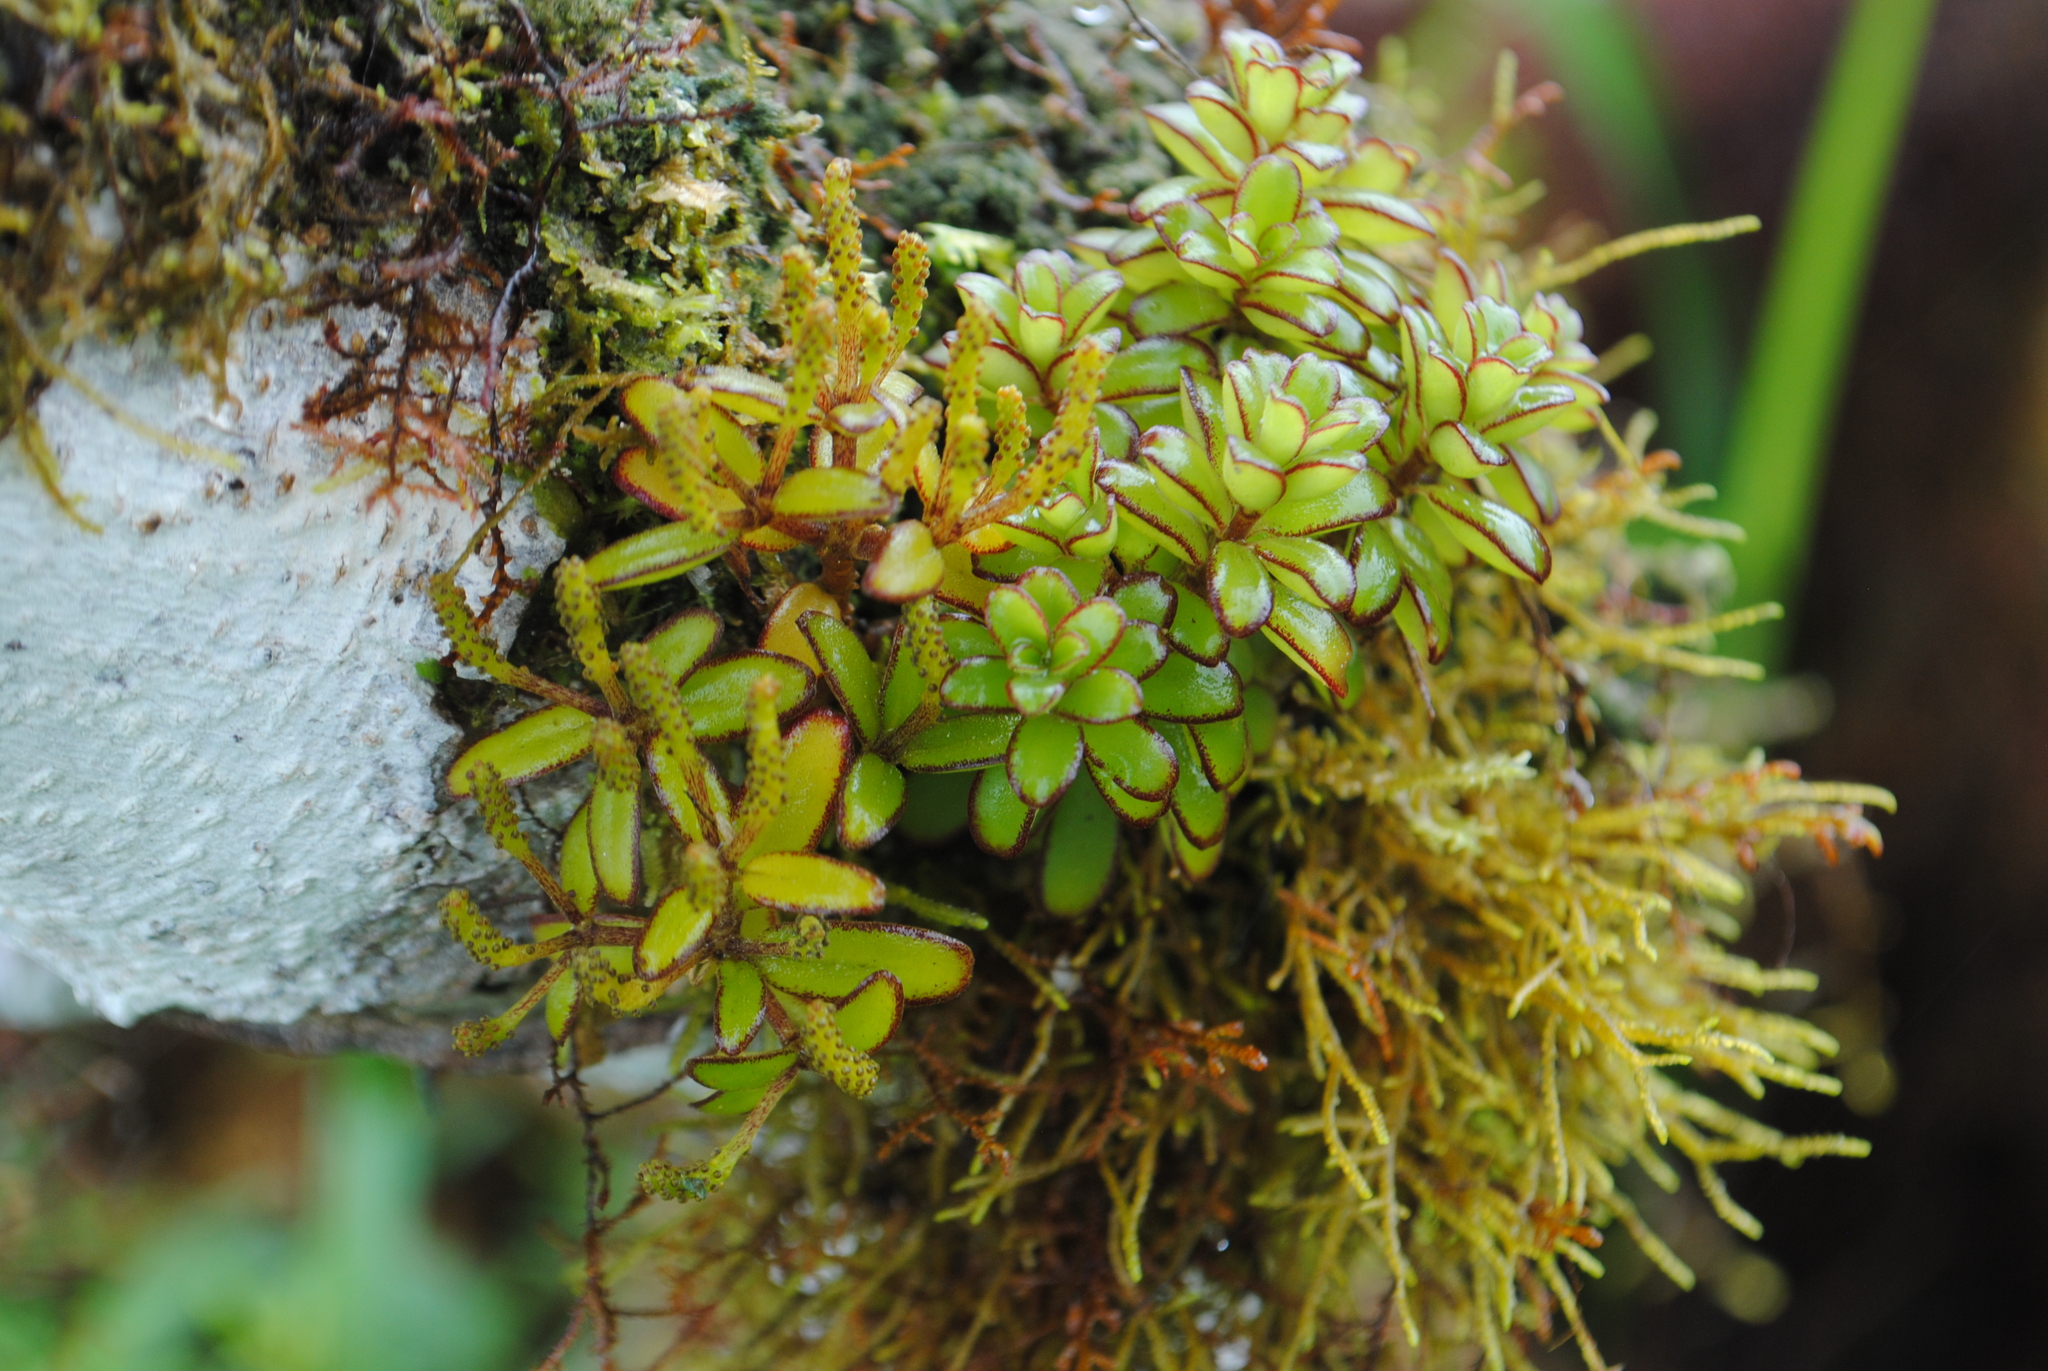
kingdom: Plantae
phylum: Tracheophyta
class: Magnoliopsida
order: Piperales
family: Piperaceae
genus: Peperomia
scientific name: Peperomia inaequalifolia
